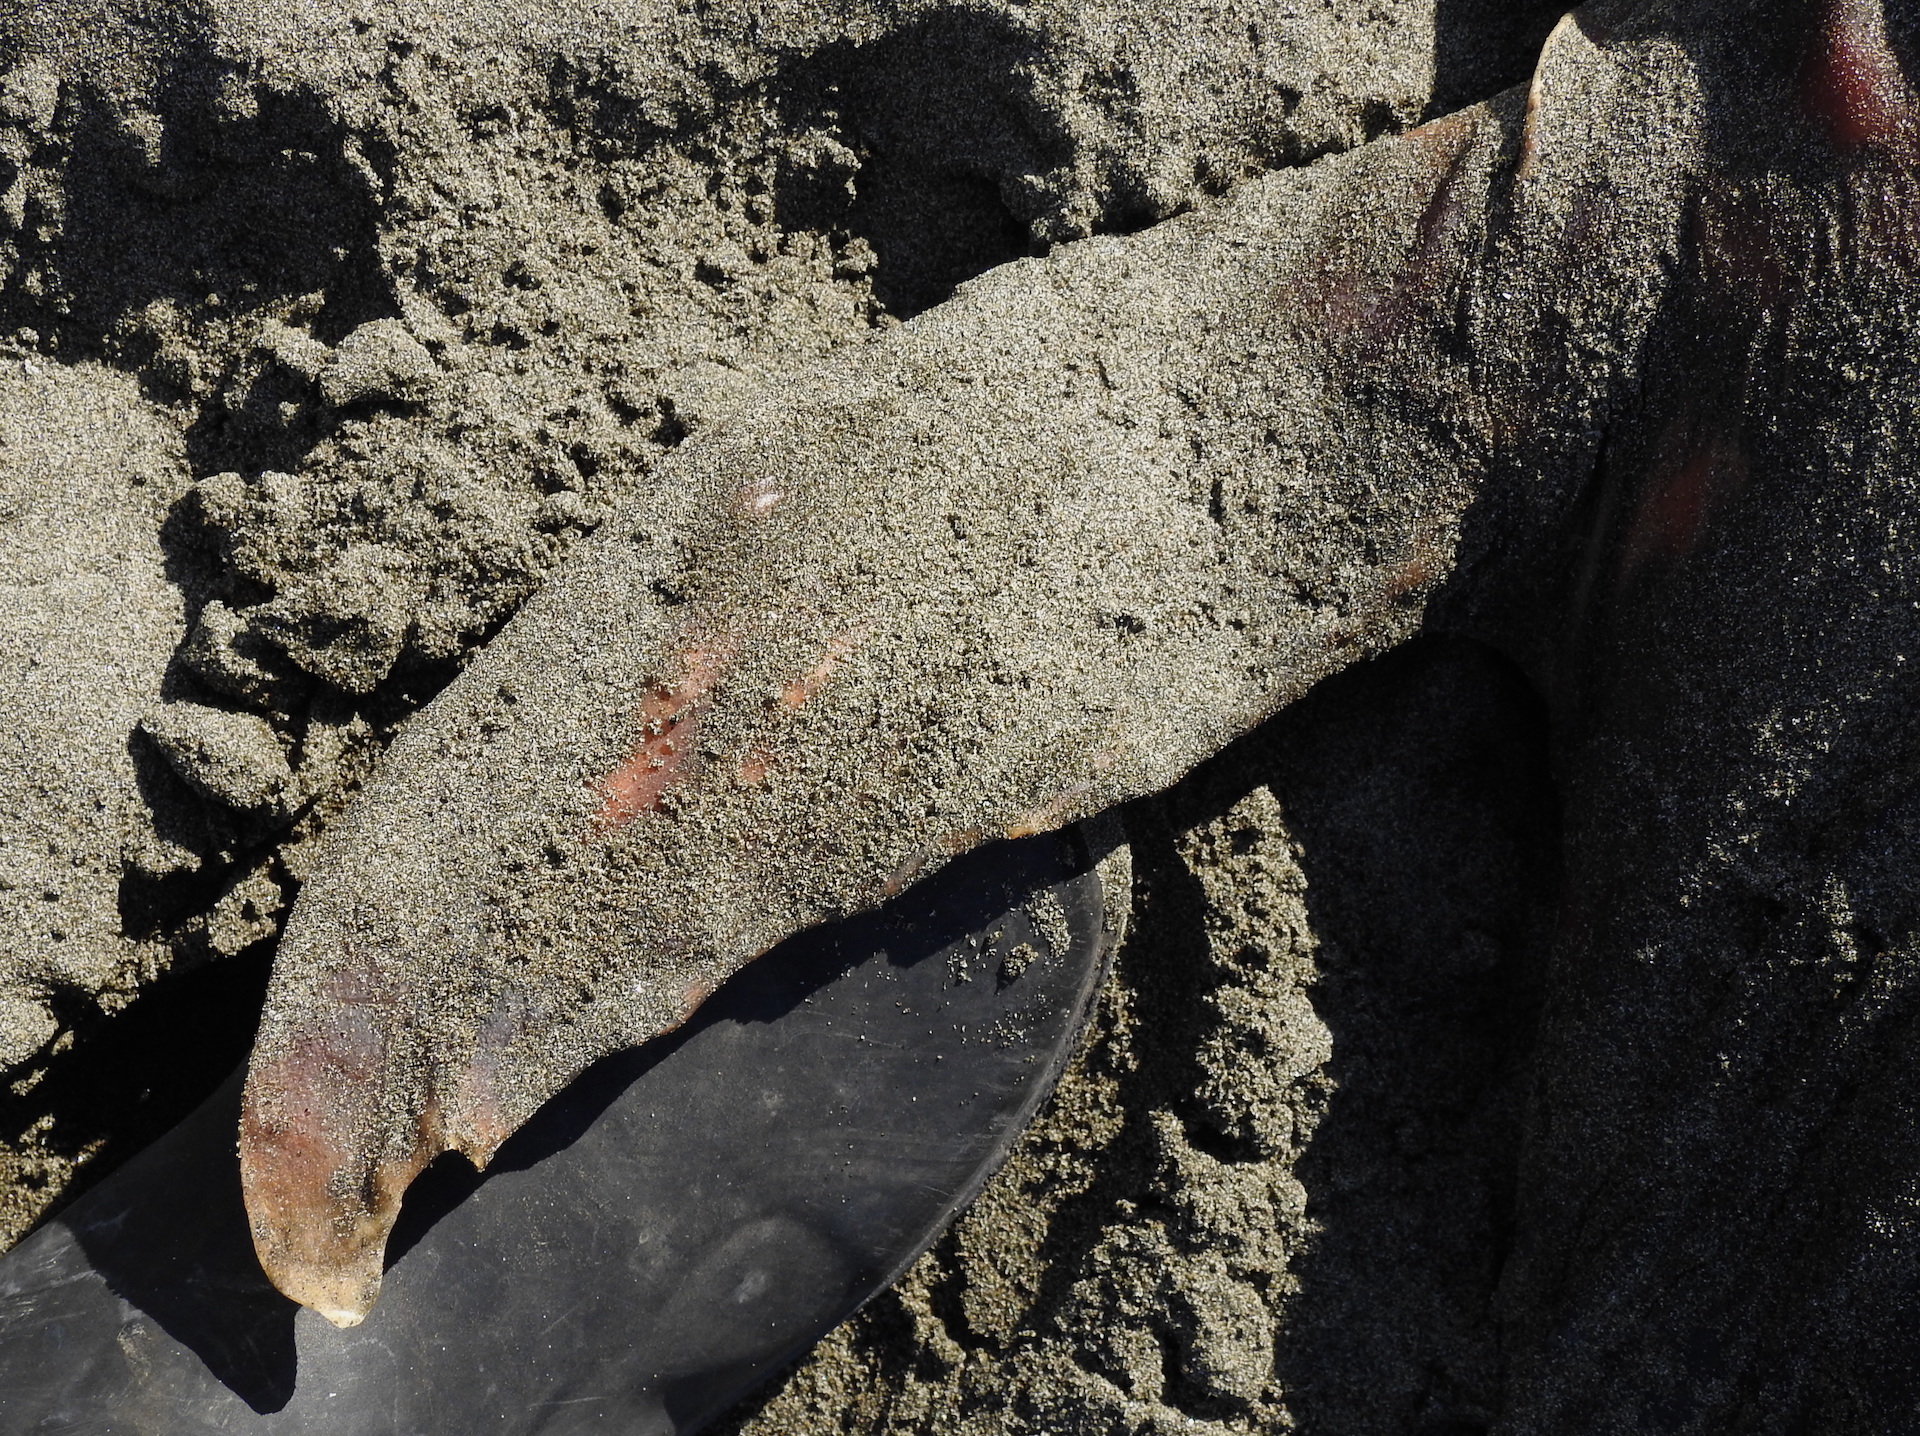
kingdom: Animalia
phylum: Chordata
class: Mammalia
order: Carnivora
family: Otariidae
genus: Zalophus
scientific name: Zalophus californianus
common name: California sea lion
